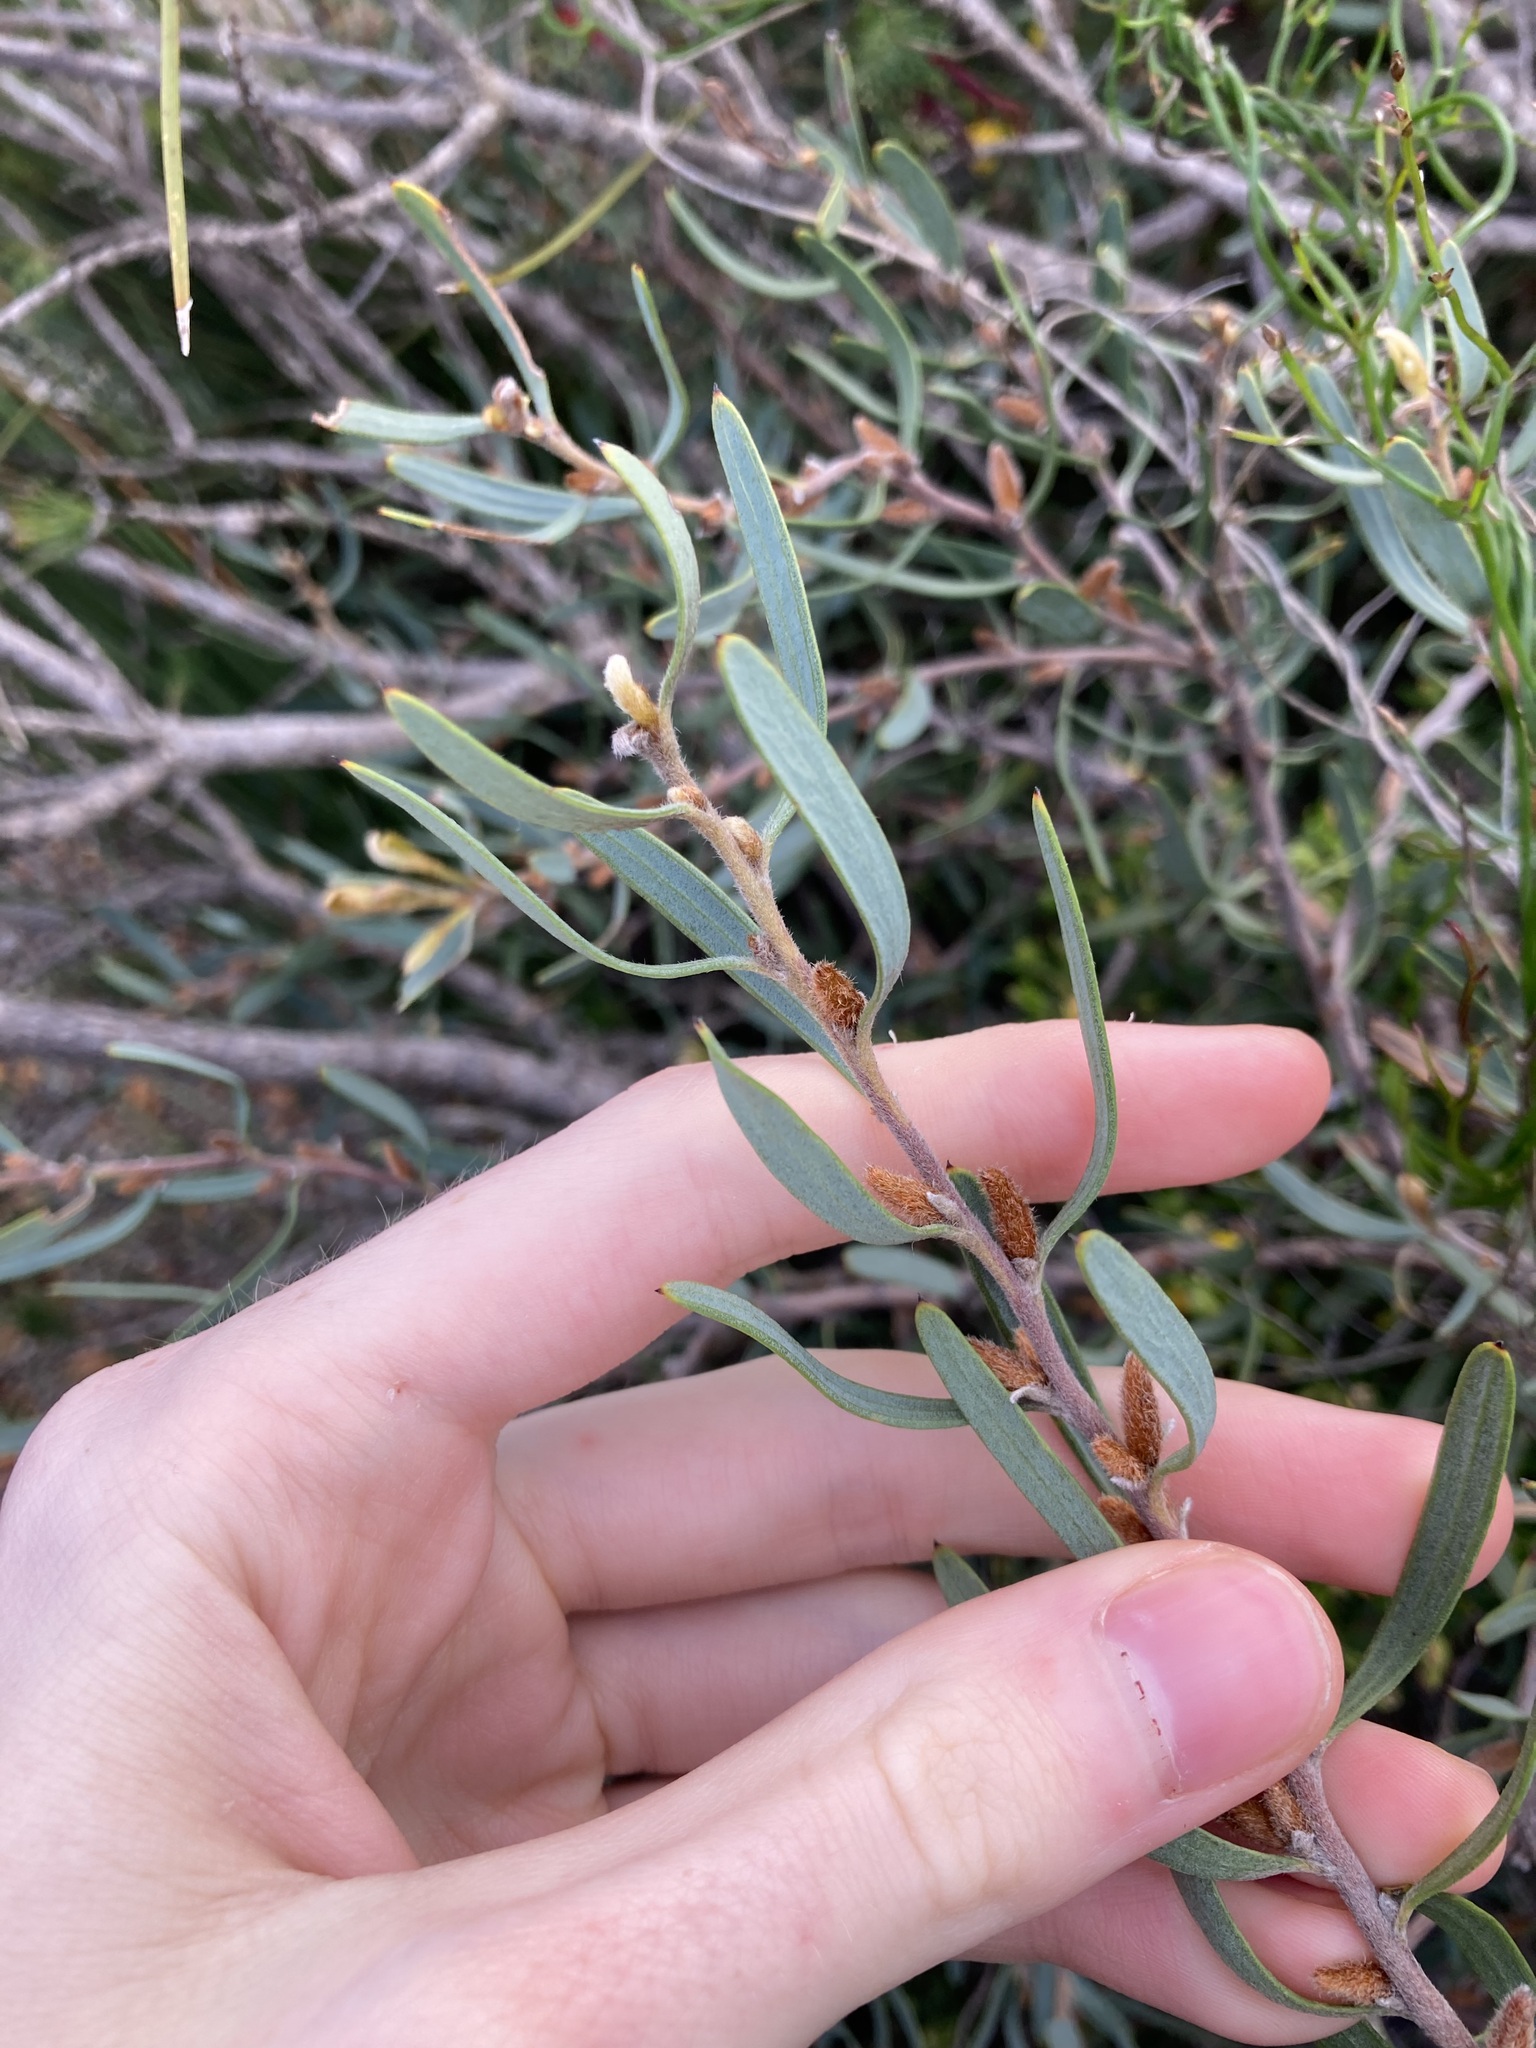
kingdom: Plantae
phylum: Tracheophyta
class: Magnoliopsida
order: Proteales
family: Proteaceae
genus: Persoonia
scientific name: Persoonia rufiflora
